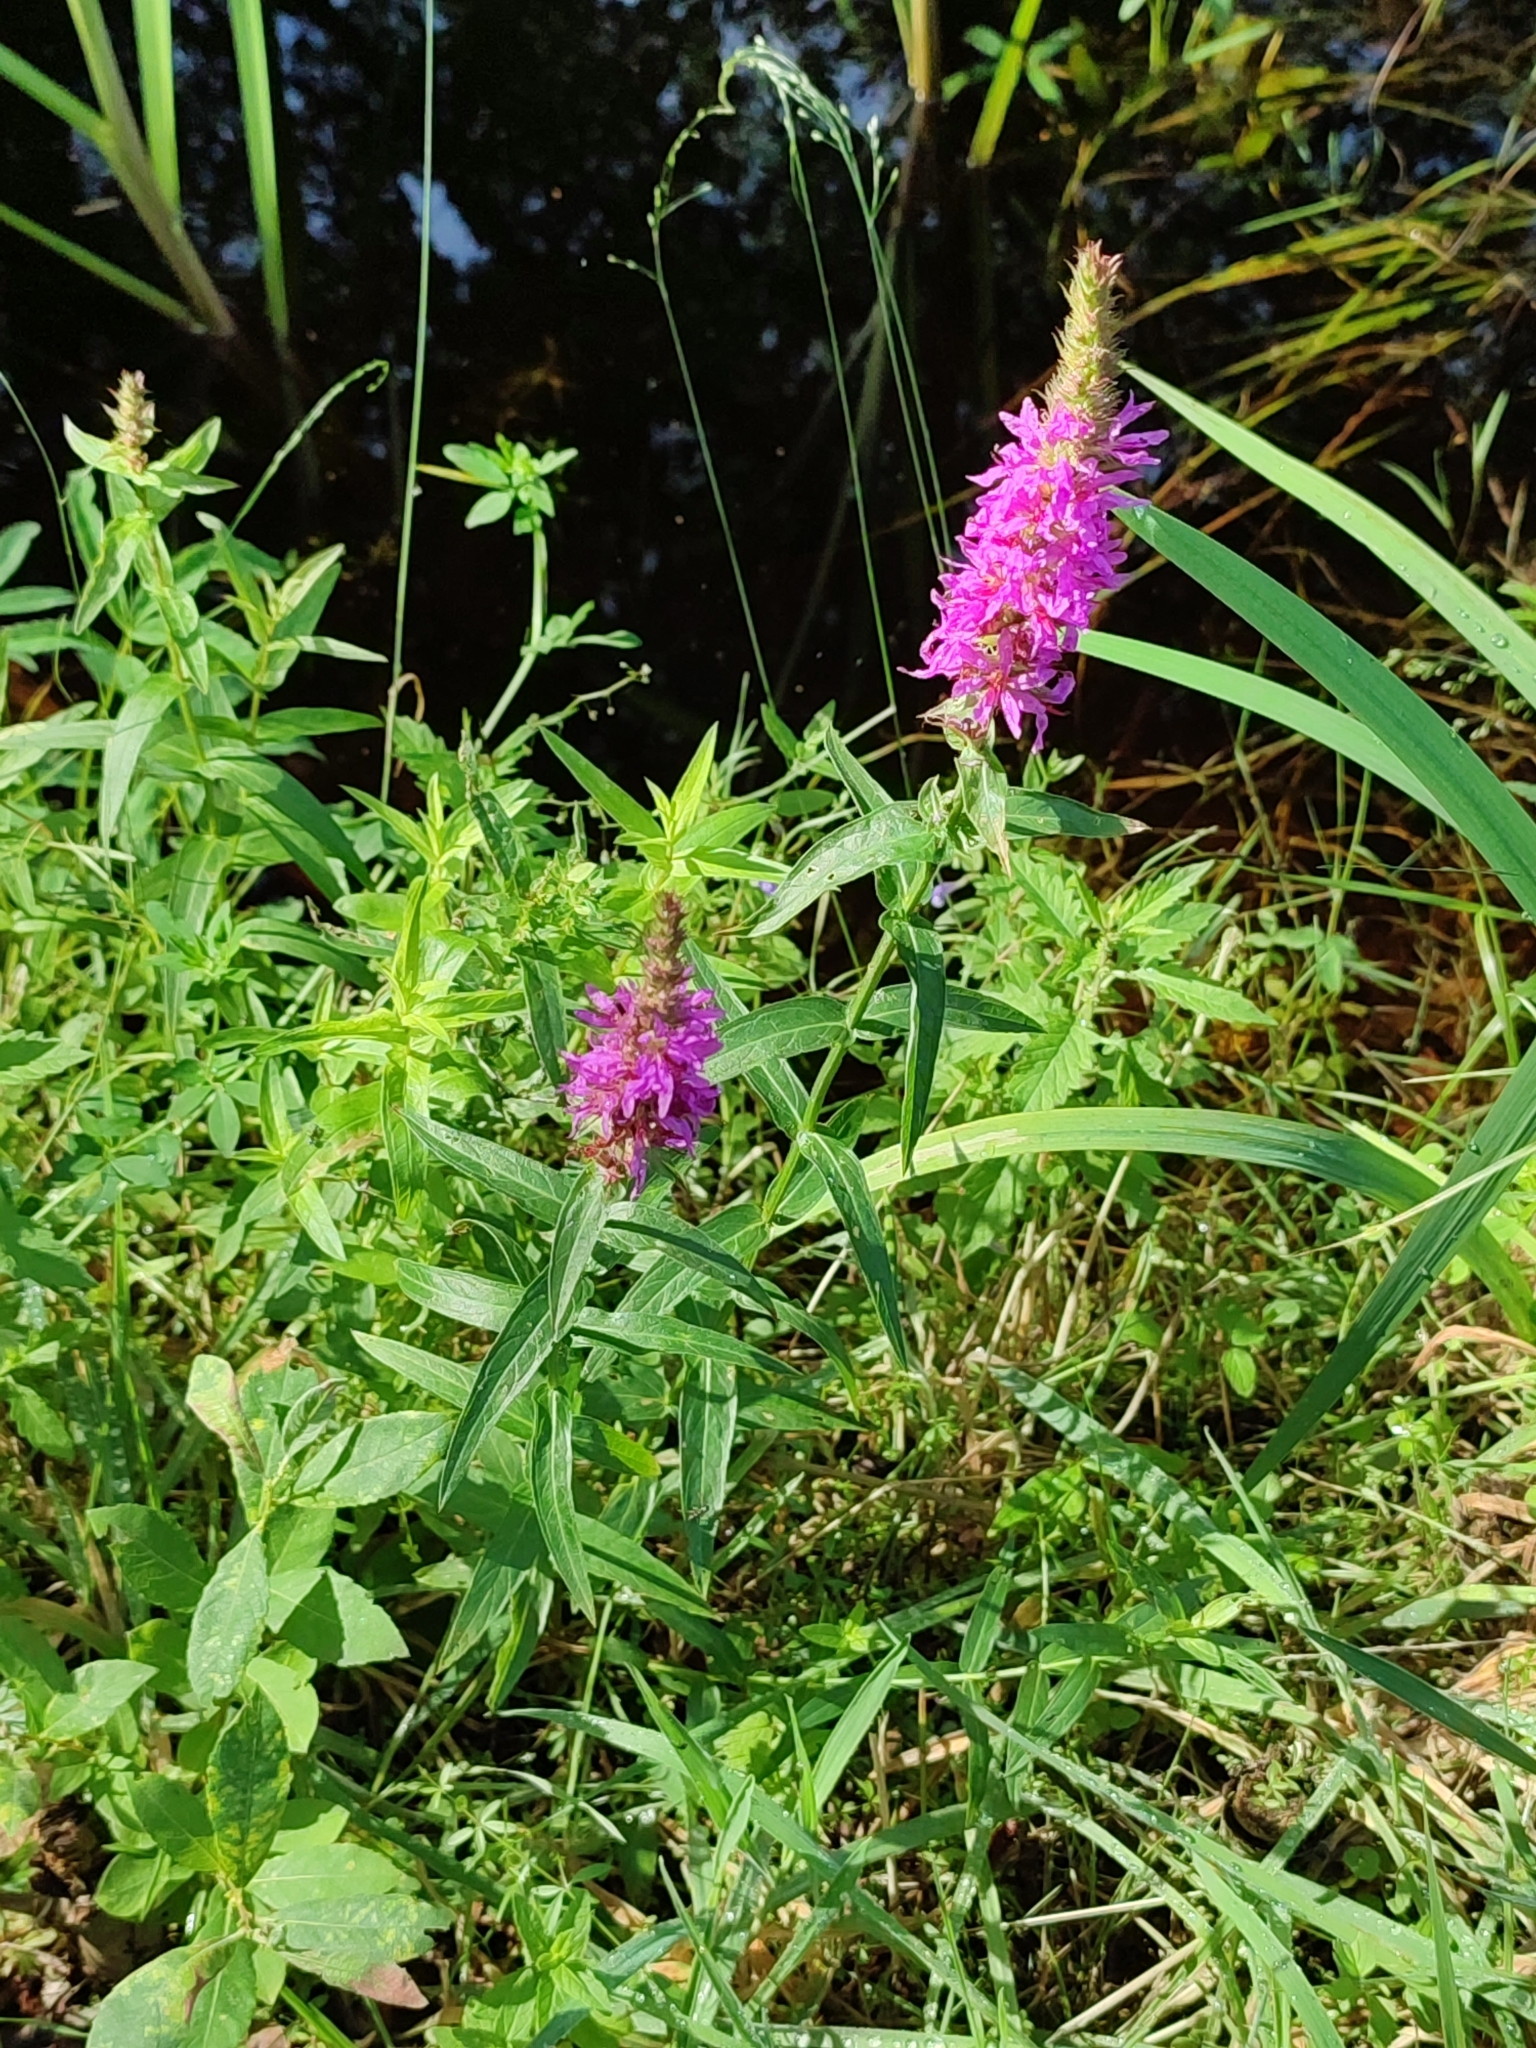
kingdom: Plantae
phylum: Tracheophyta
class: Magnoliopsida
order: Myrtales
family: Lythraceae
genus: Lythrum
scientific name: Lythrum salicaria
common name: Purple loosestrife
